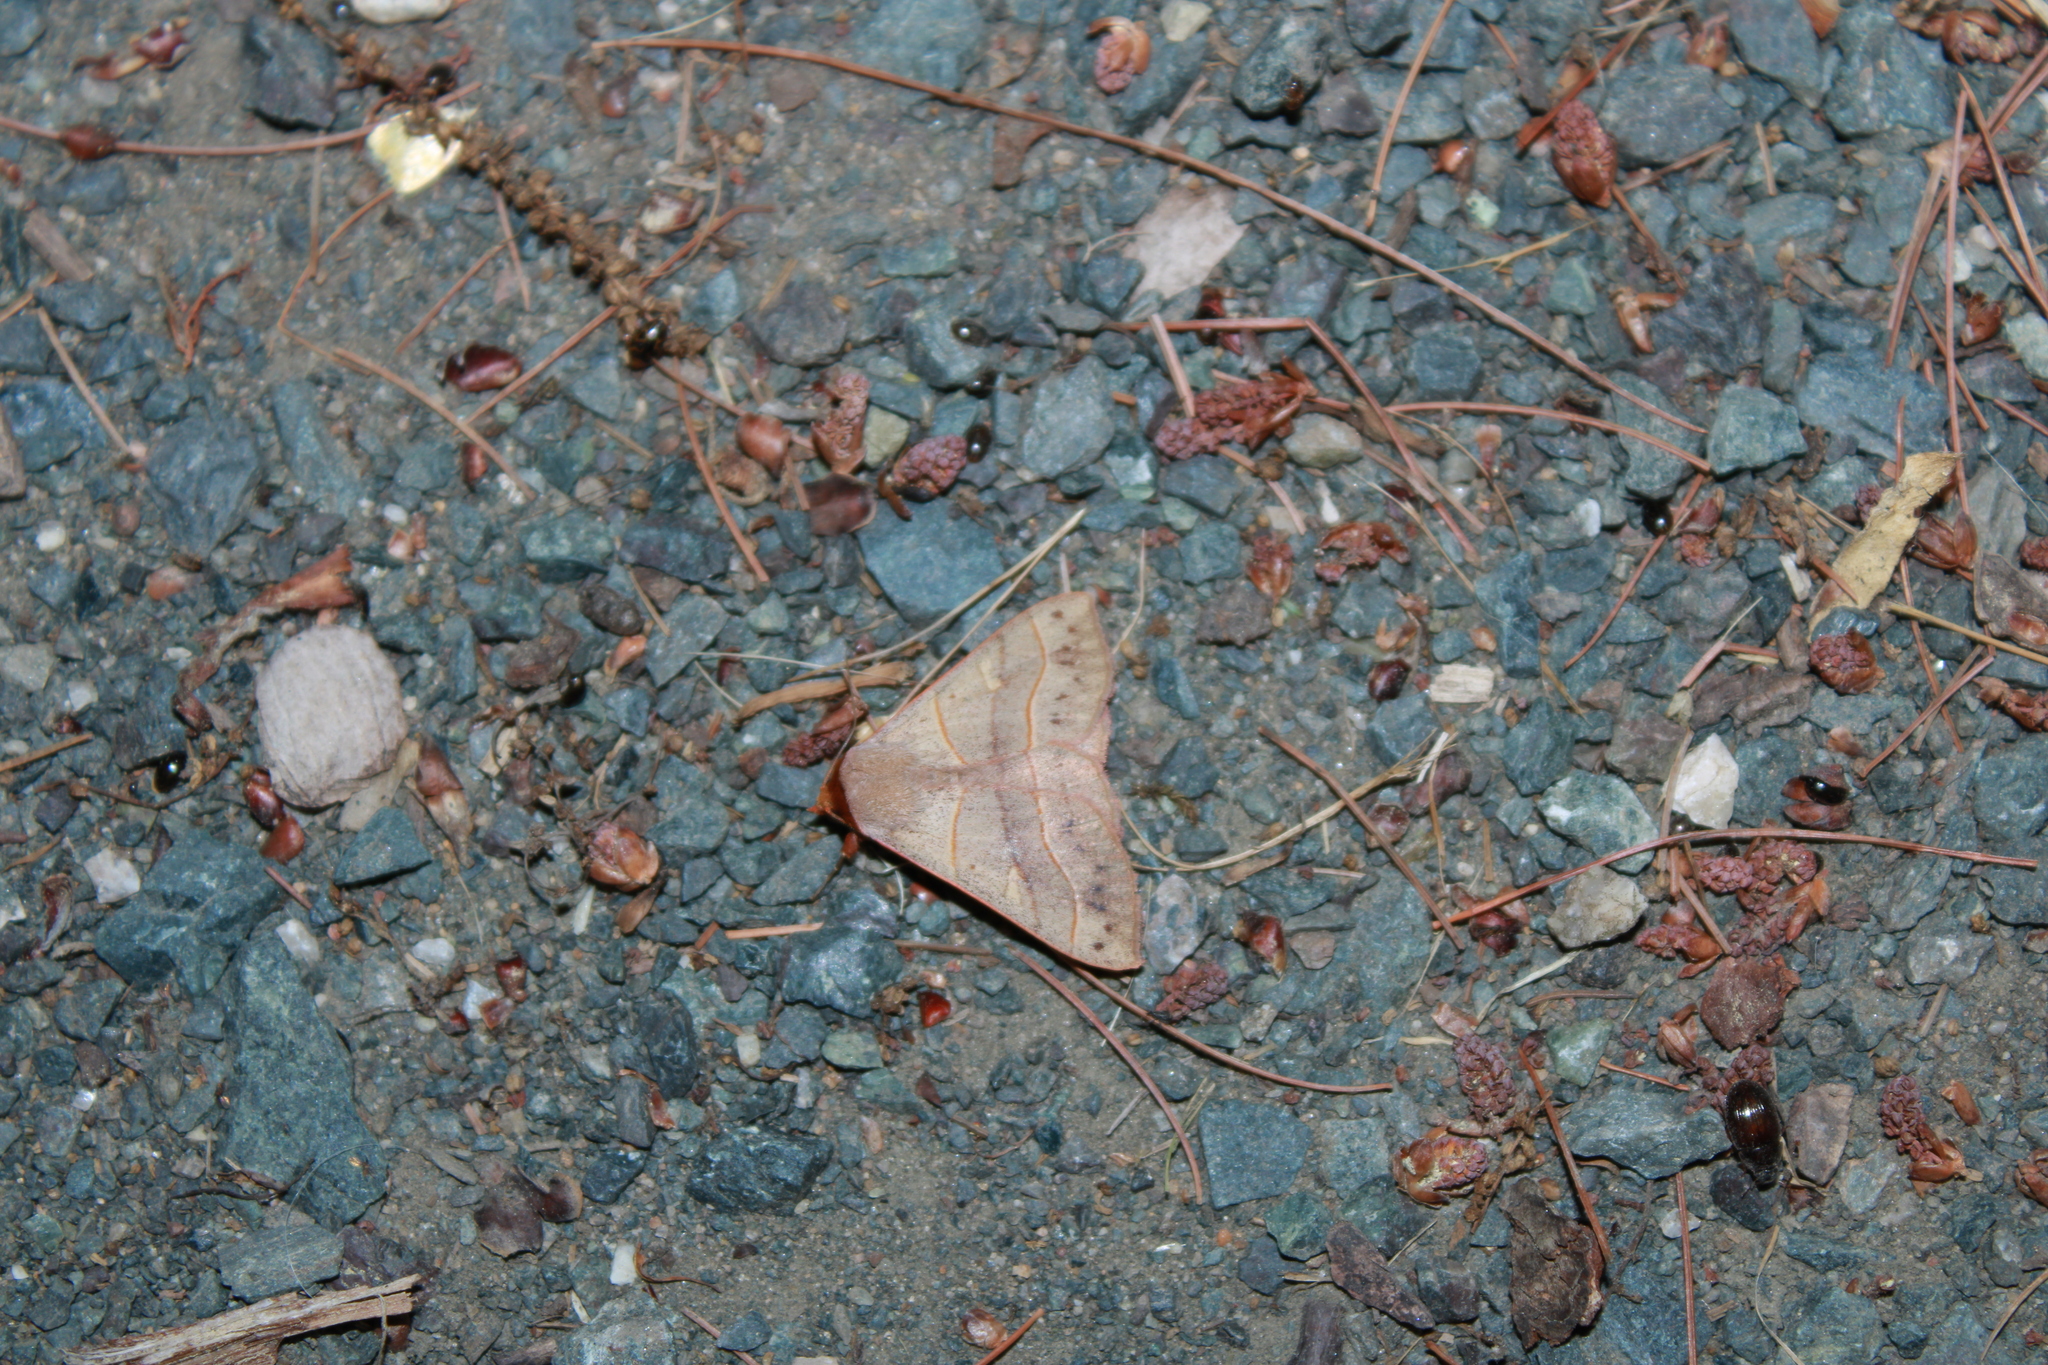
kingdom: Animalia
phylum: Arthropoda
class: Insecta
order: Lepidoptera
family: Erebidae
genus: Panopoda
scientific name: Panopoda rufimargo
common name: Red-lined panopoda moth
